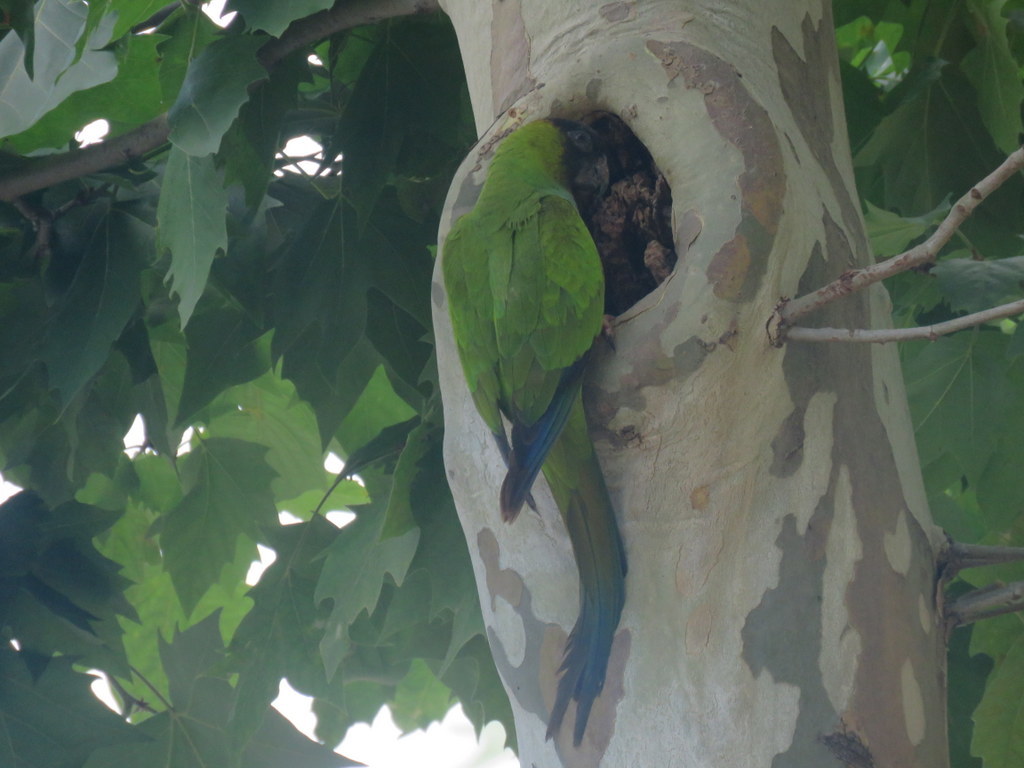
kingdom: Animalia
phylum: Chordata
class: Aves
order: Psittaciformes
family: Psittacidae
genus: Nandayus
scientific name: Nandayus nenday
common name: Nanday parakeet
